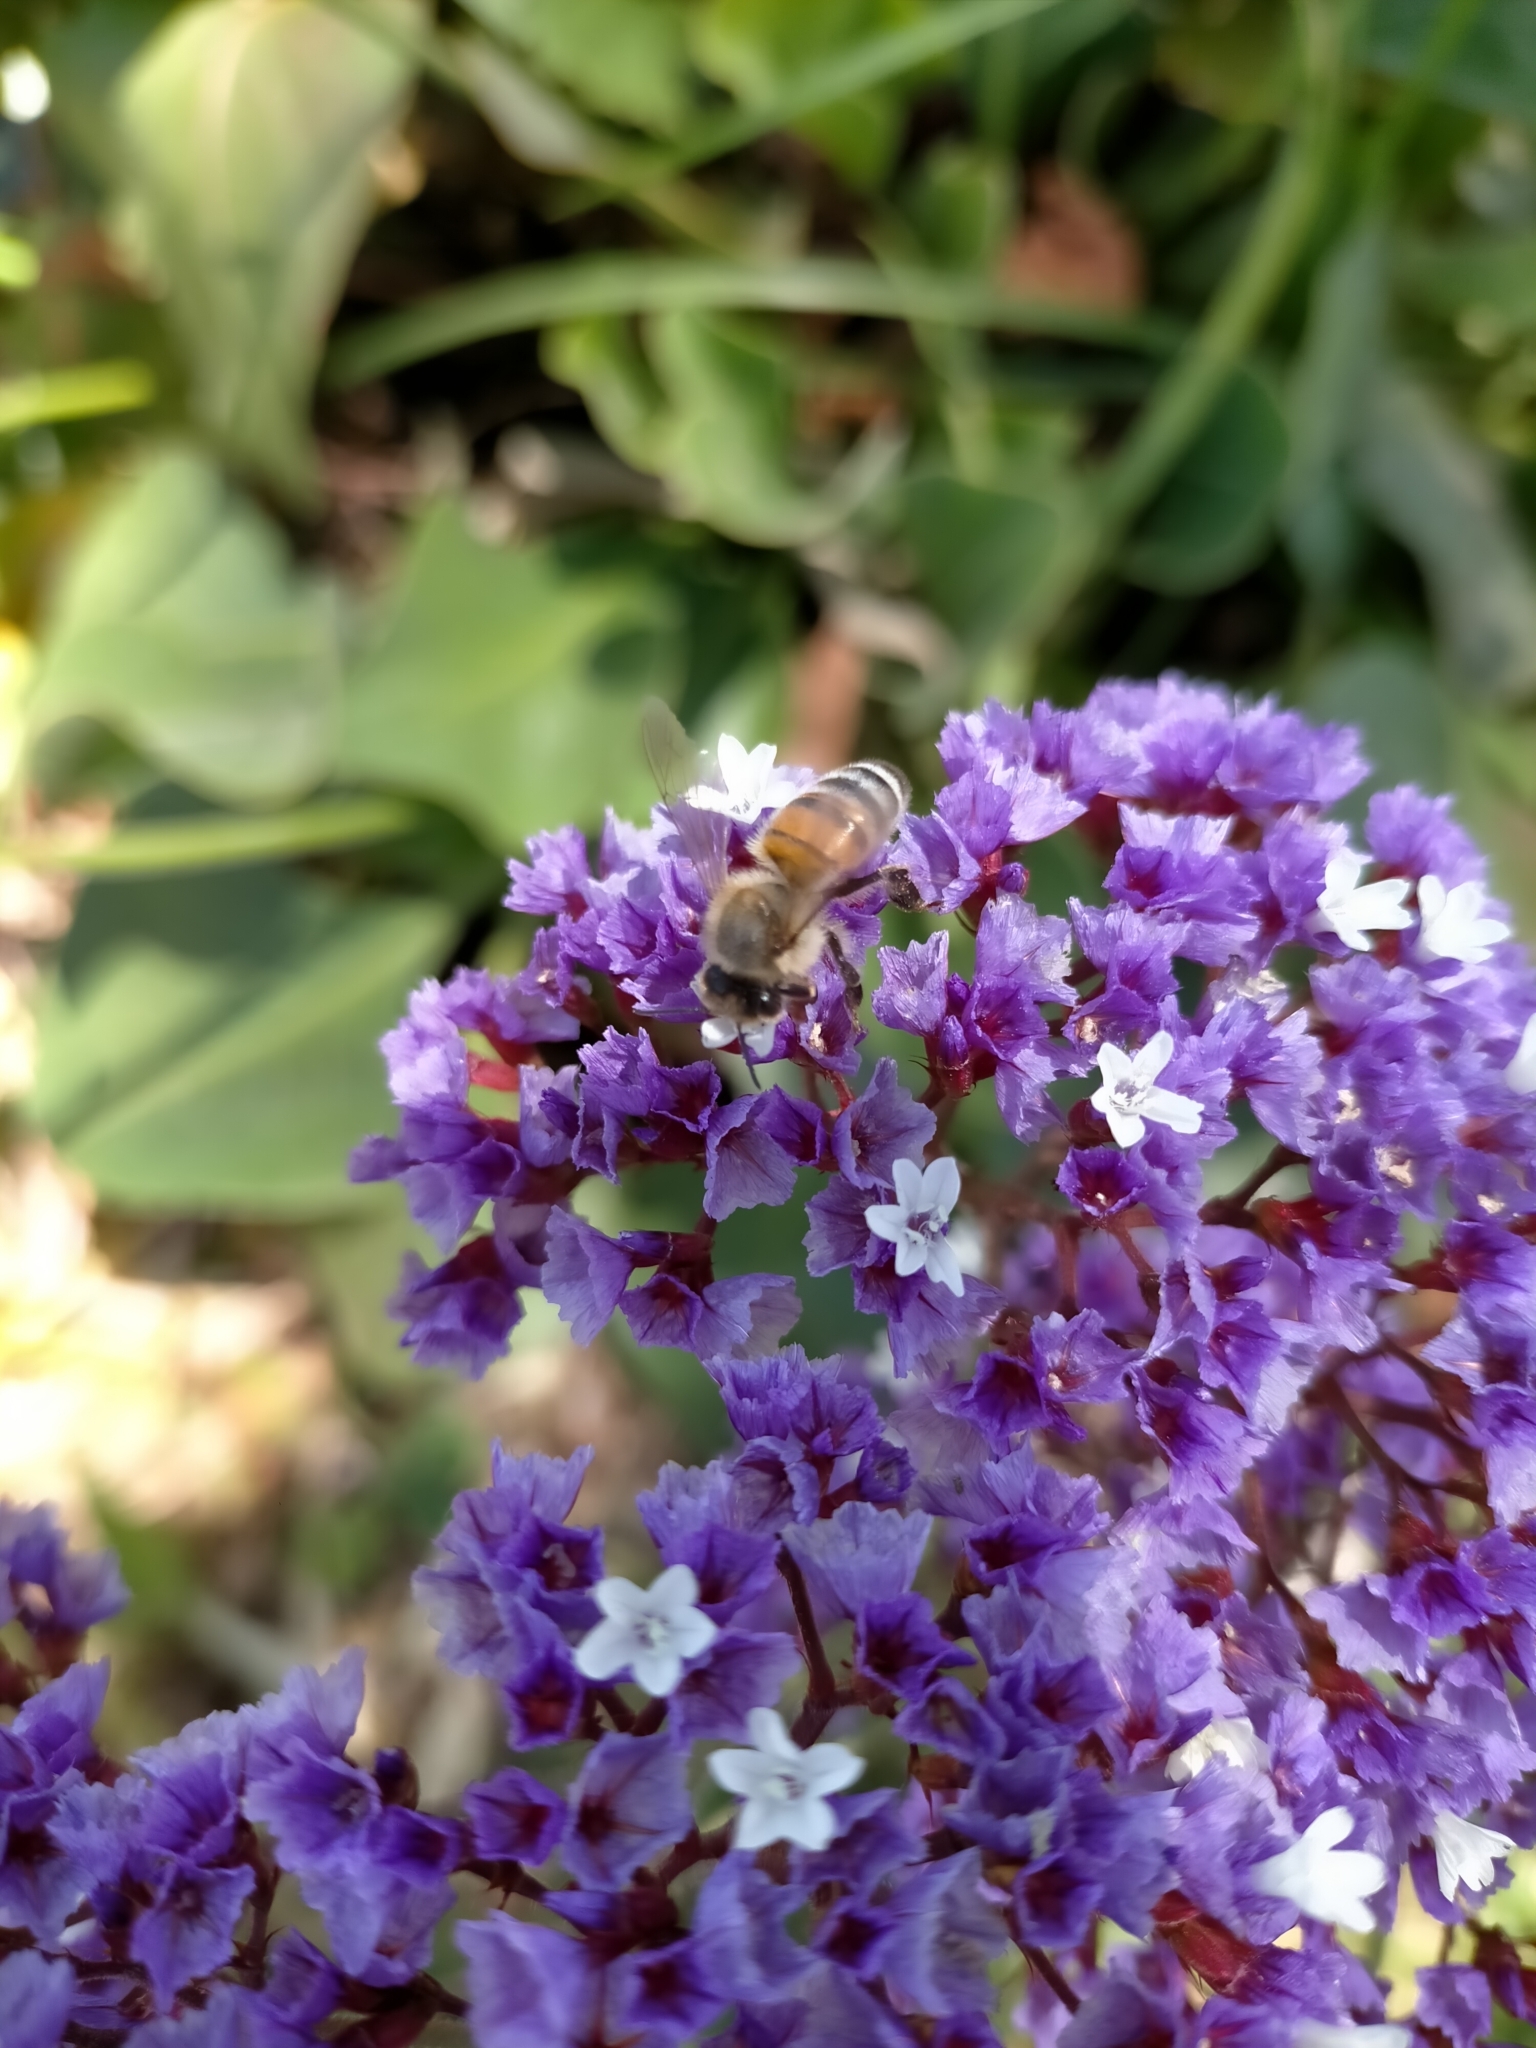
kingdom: Animalia
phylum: Arthropoda
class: Insecta
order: Hymenoptera
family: Apidae
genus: Apis
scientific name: Apis mellifera
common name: Honey bee
